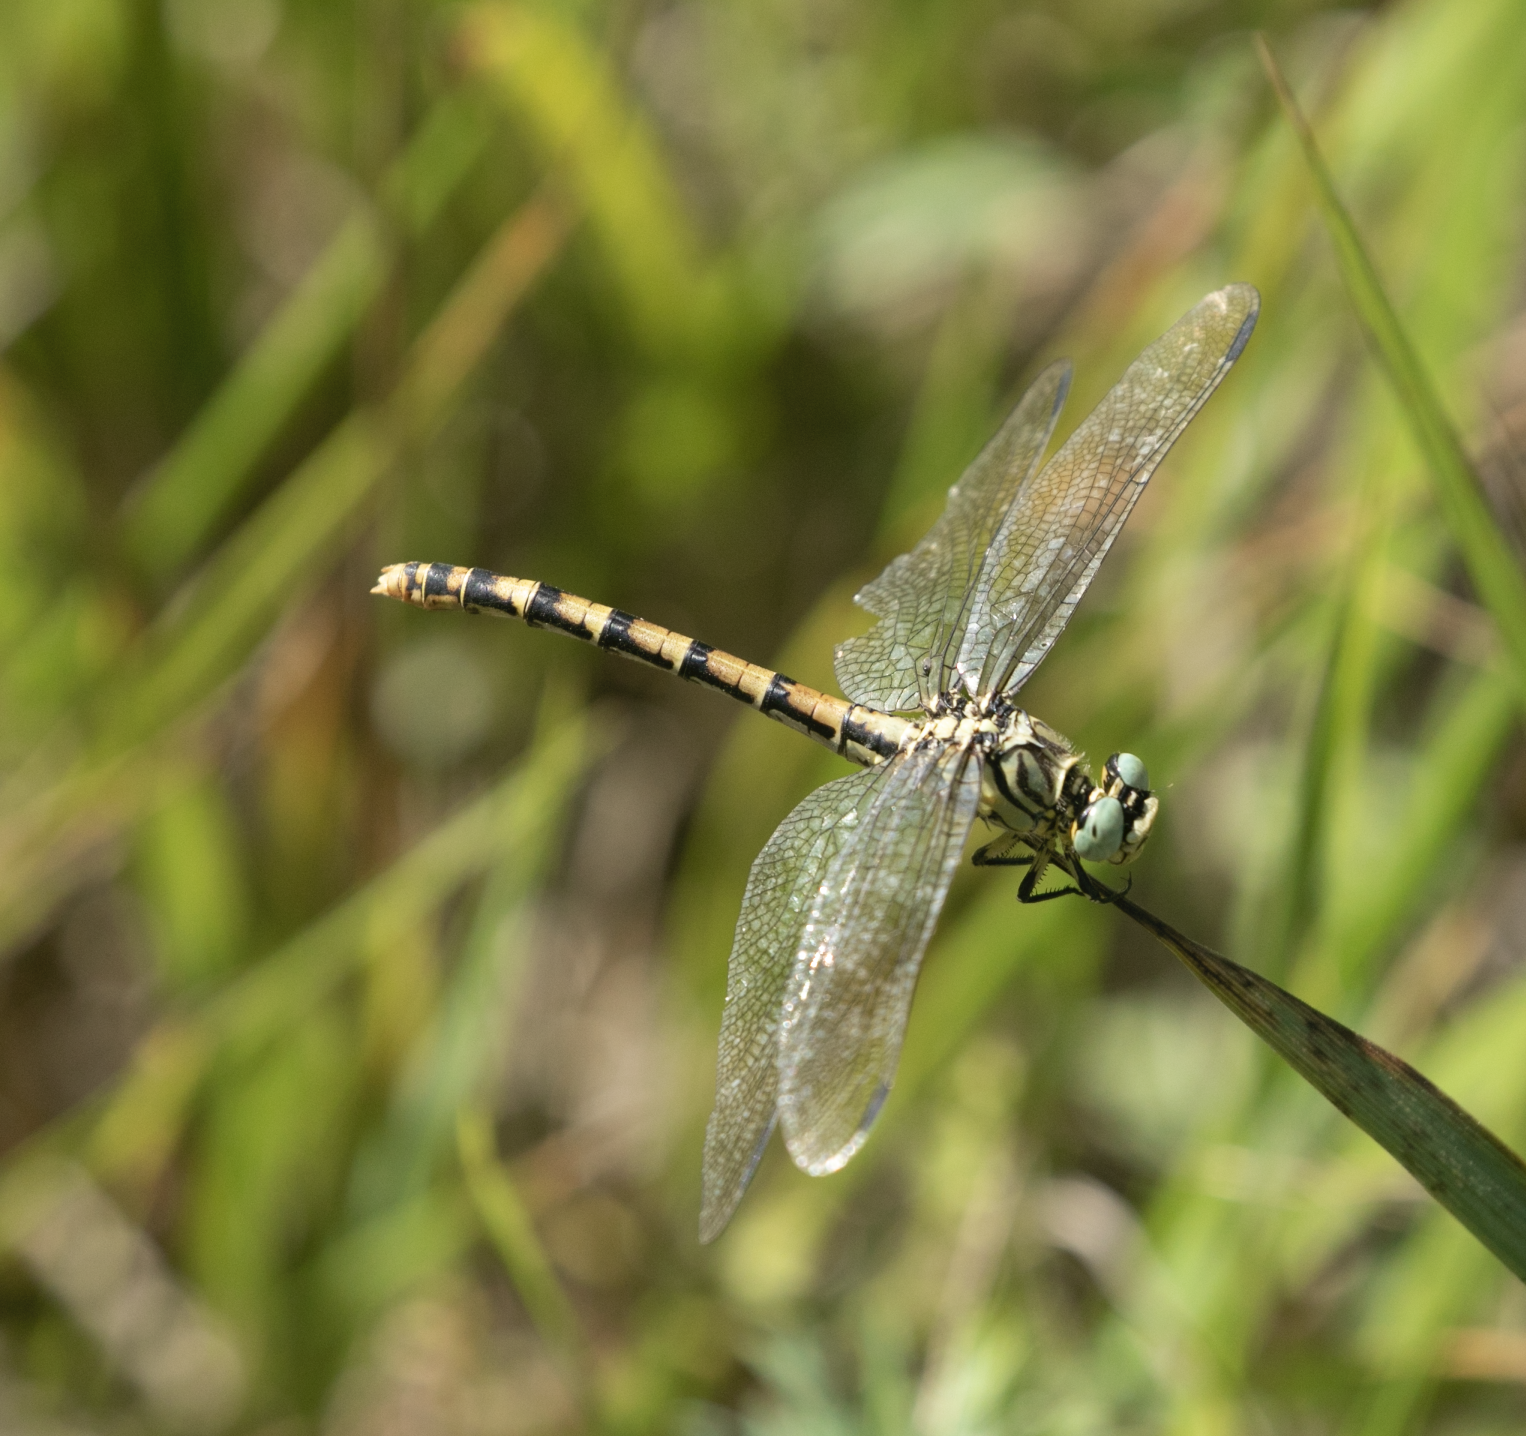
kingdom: Animalia
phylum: Arthropoda
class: Insecta
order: Odonata
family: Gomphidae
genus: Onychogomphus
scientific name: Onychogomphus forcipatus
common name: Small pincertail
